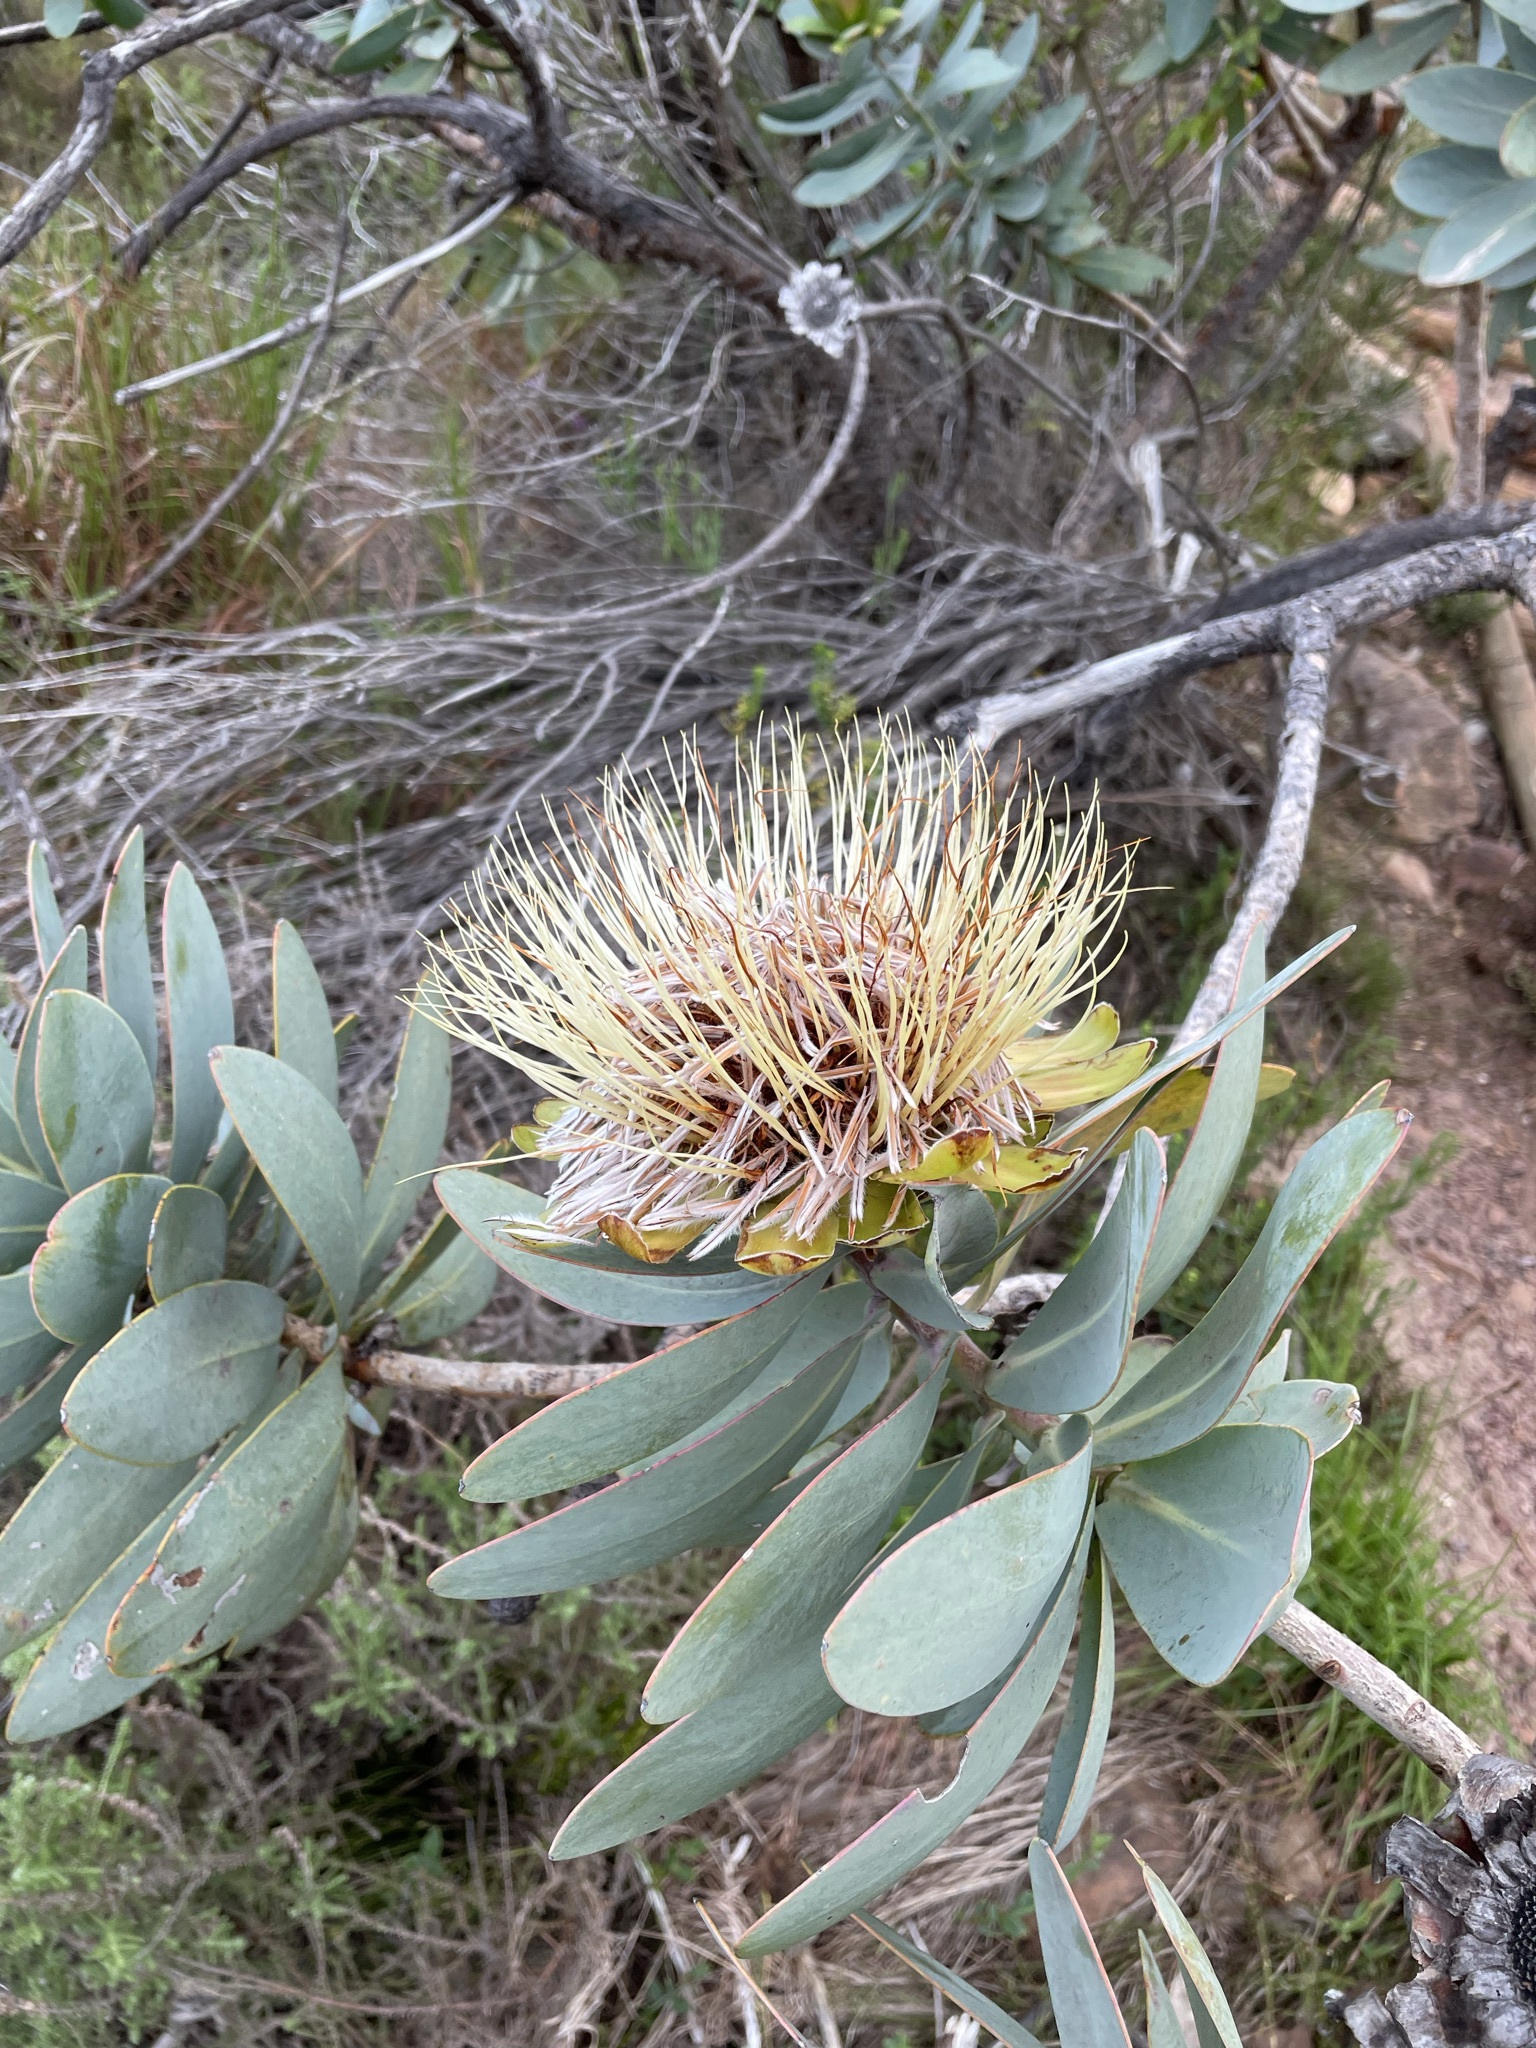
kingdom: Plantae
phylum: Tracheophyta
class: Magnoliopsida
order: Proteales
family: Proteaceae
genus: Protea
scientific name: Protea nitida
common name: Tree protea
